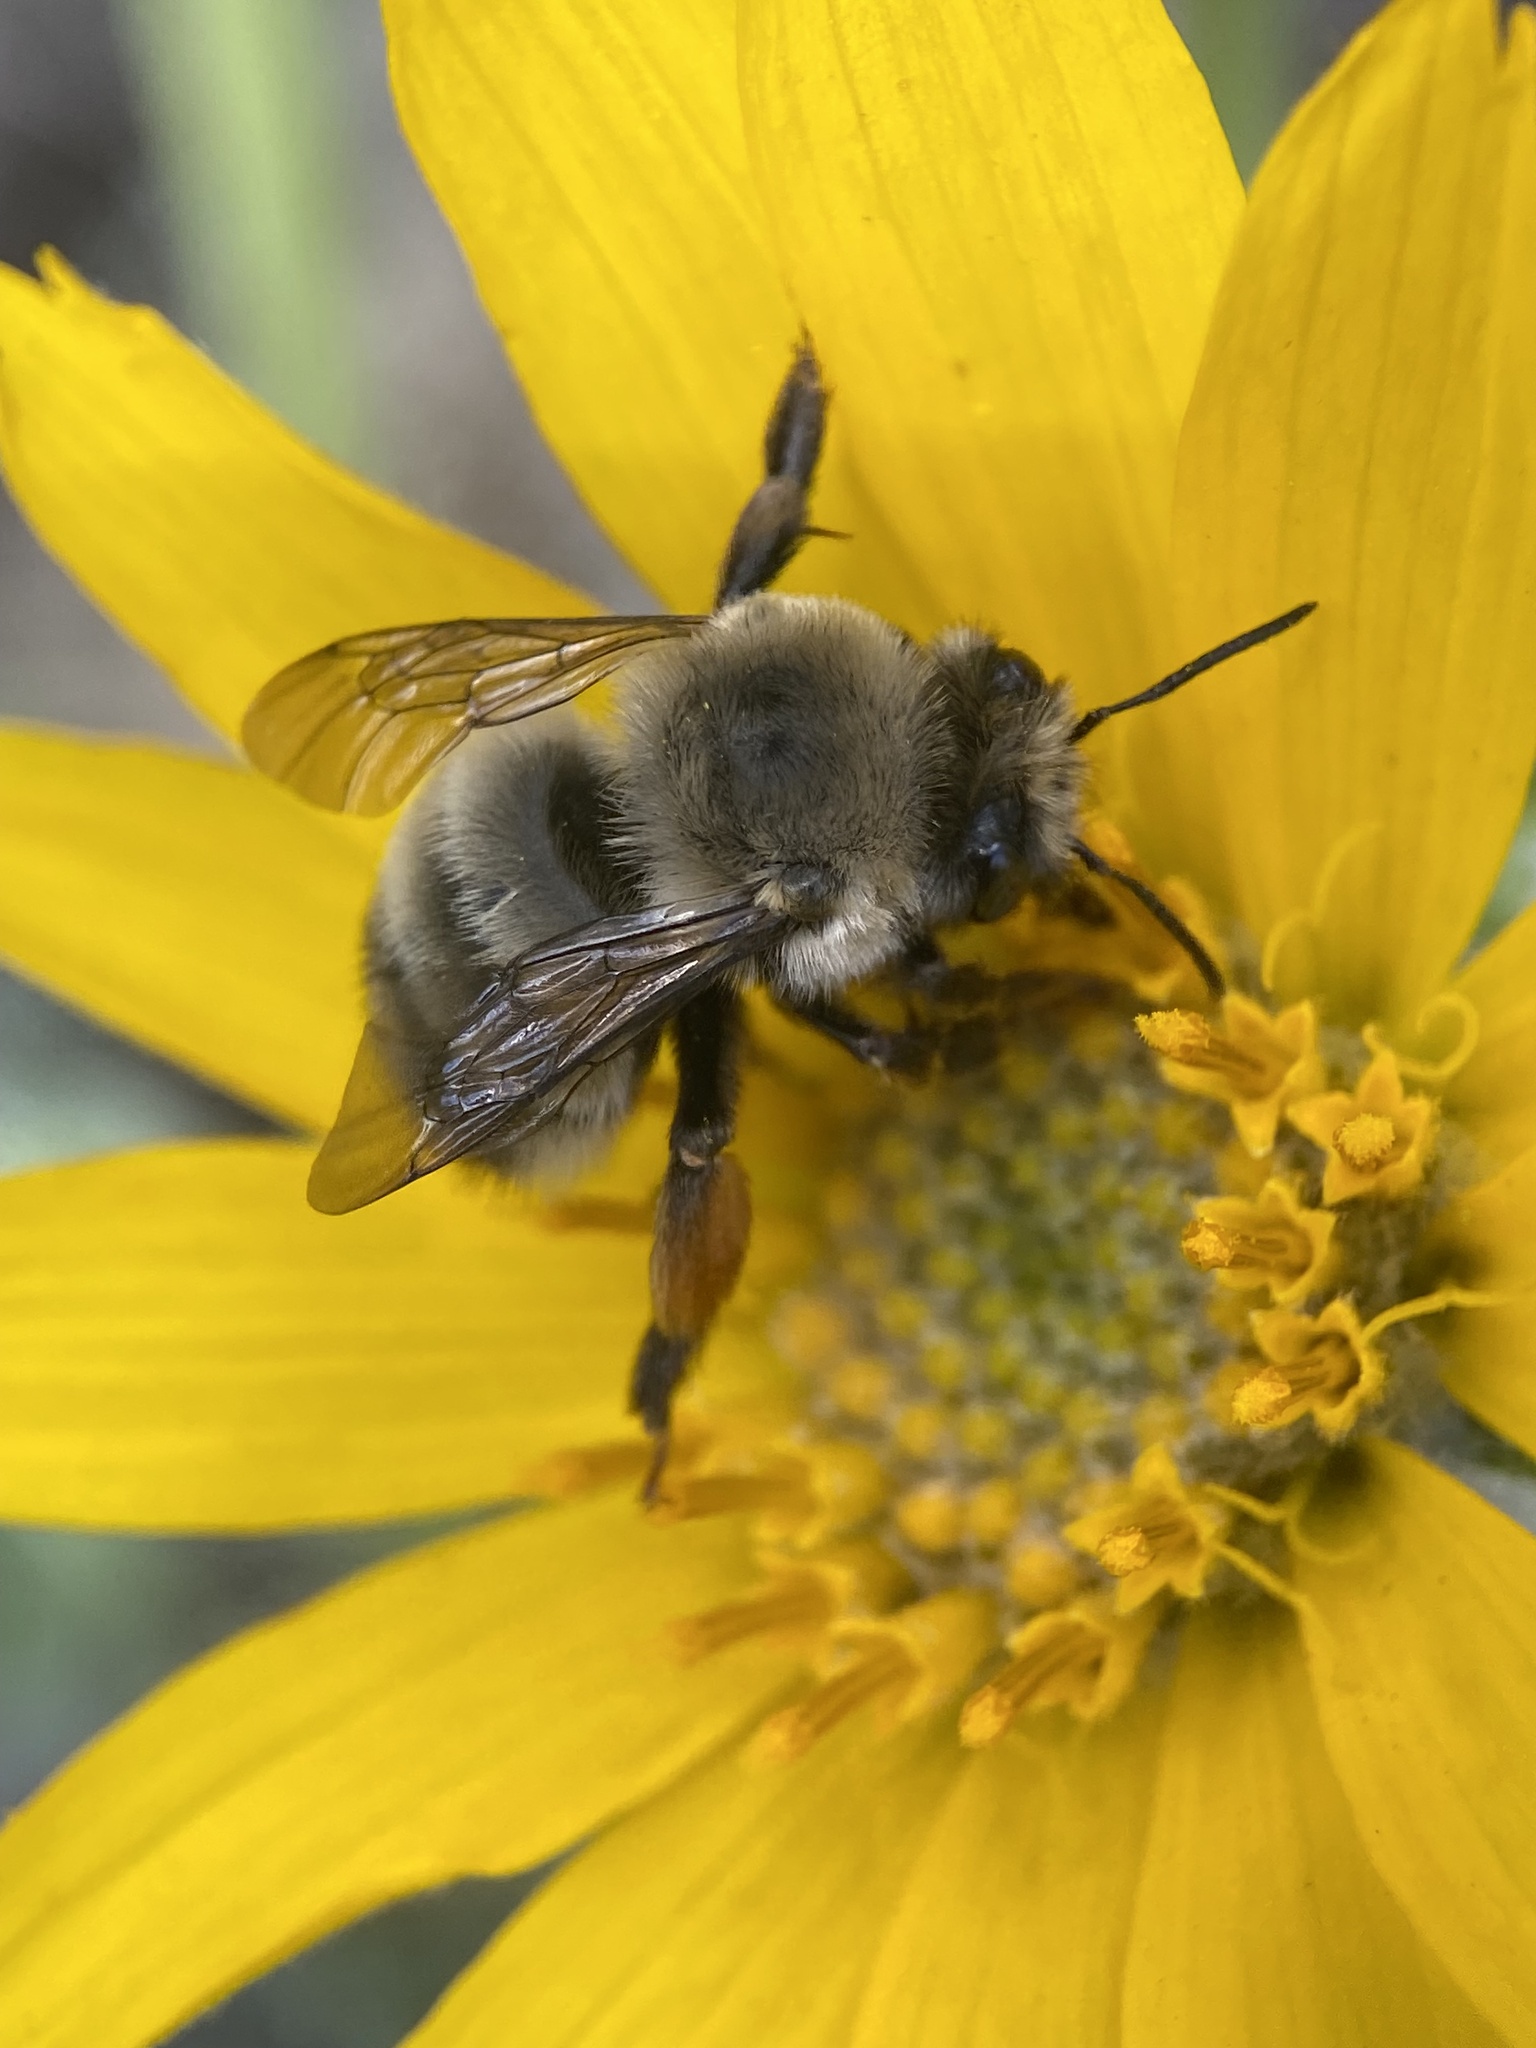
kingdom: Animalia
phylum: Arthropoda
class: Insecta
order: Hymenoptera
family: Apidae
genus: Habropoda
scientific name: Habropoda cineraria
